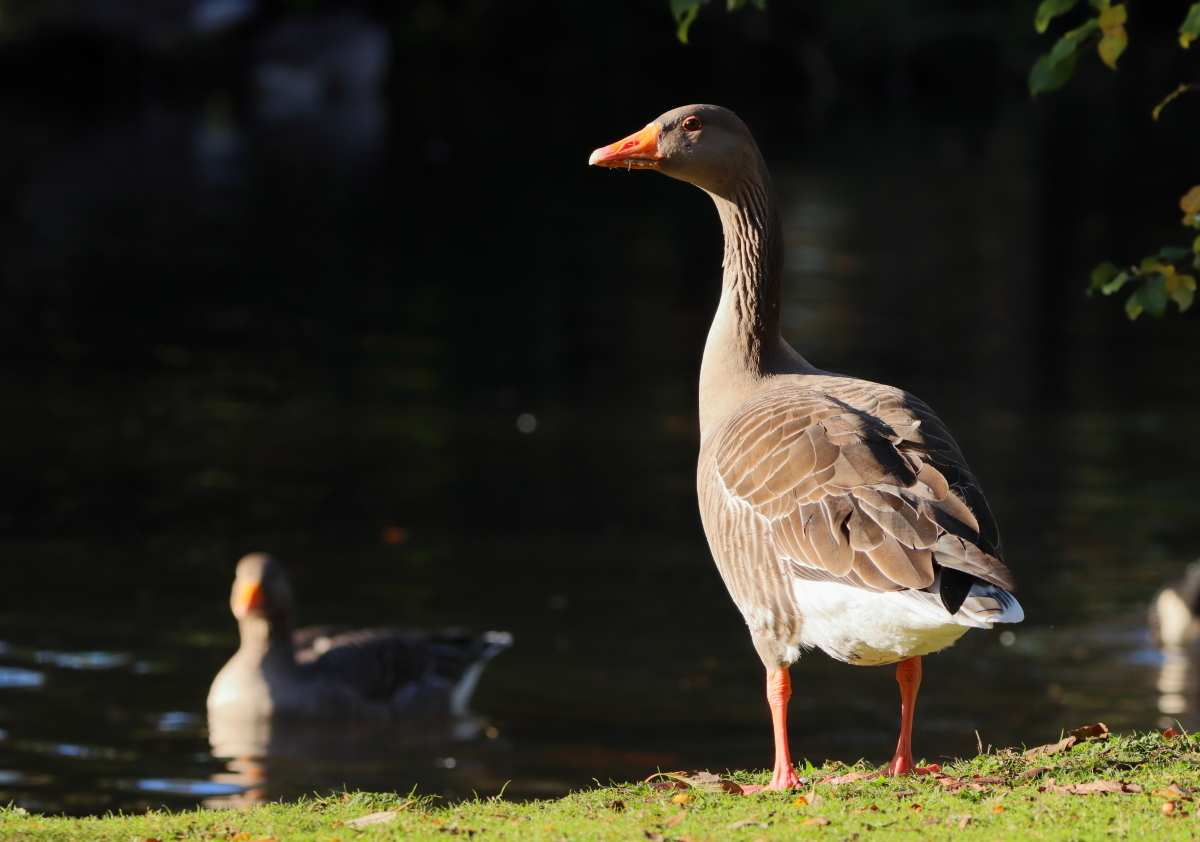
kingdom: Animalia
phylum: Chordata
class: Aves
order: Anseriformes
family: Anatidae
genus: Anser
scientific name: Anser anser
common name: Greylag goose
